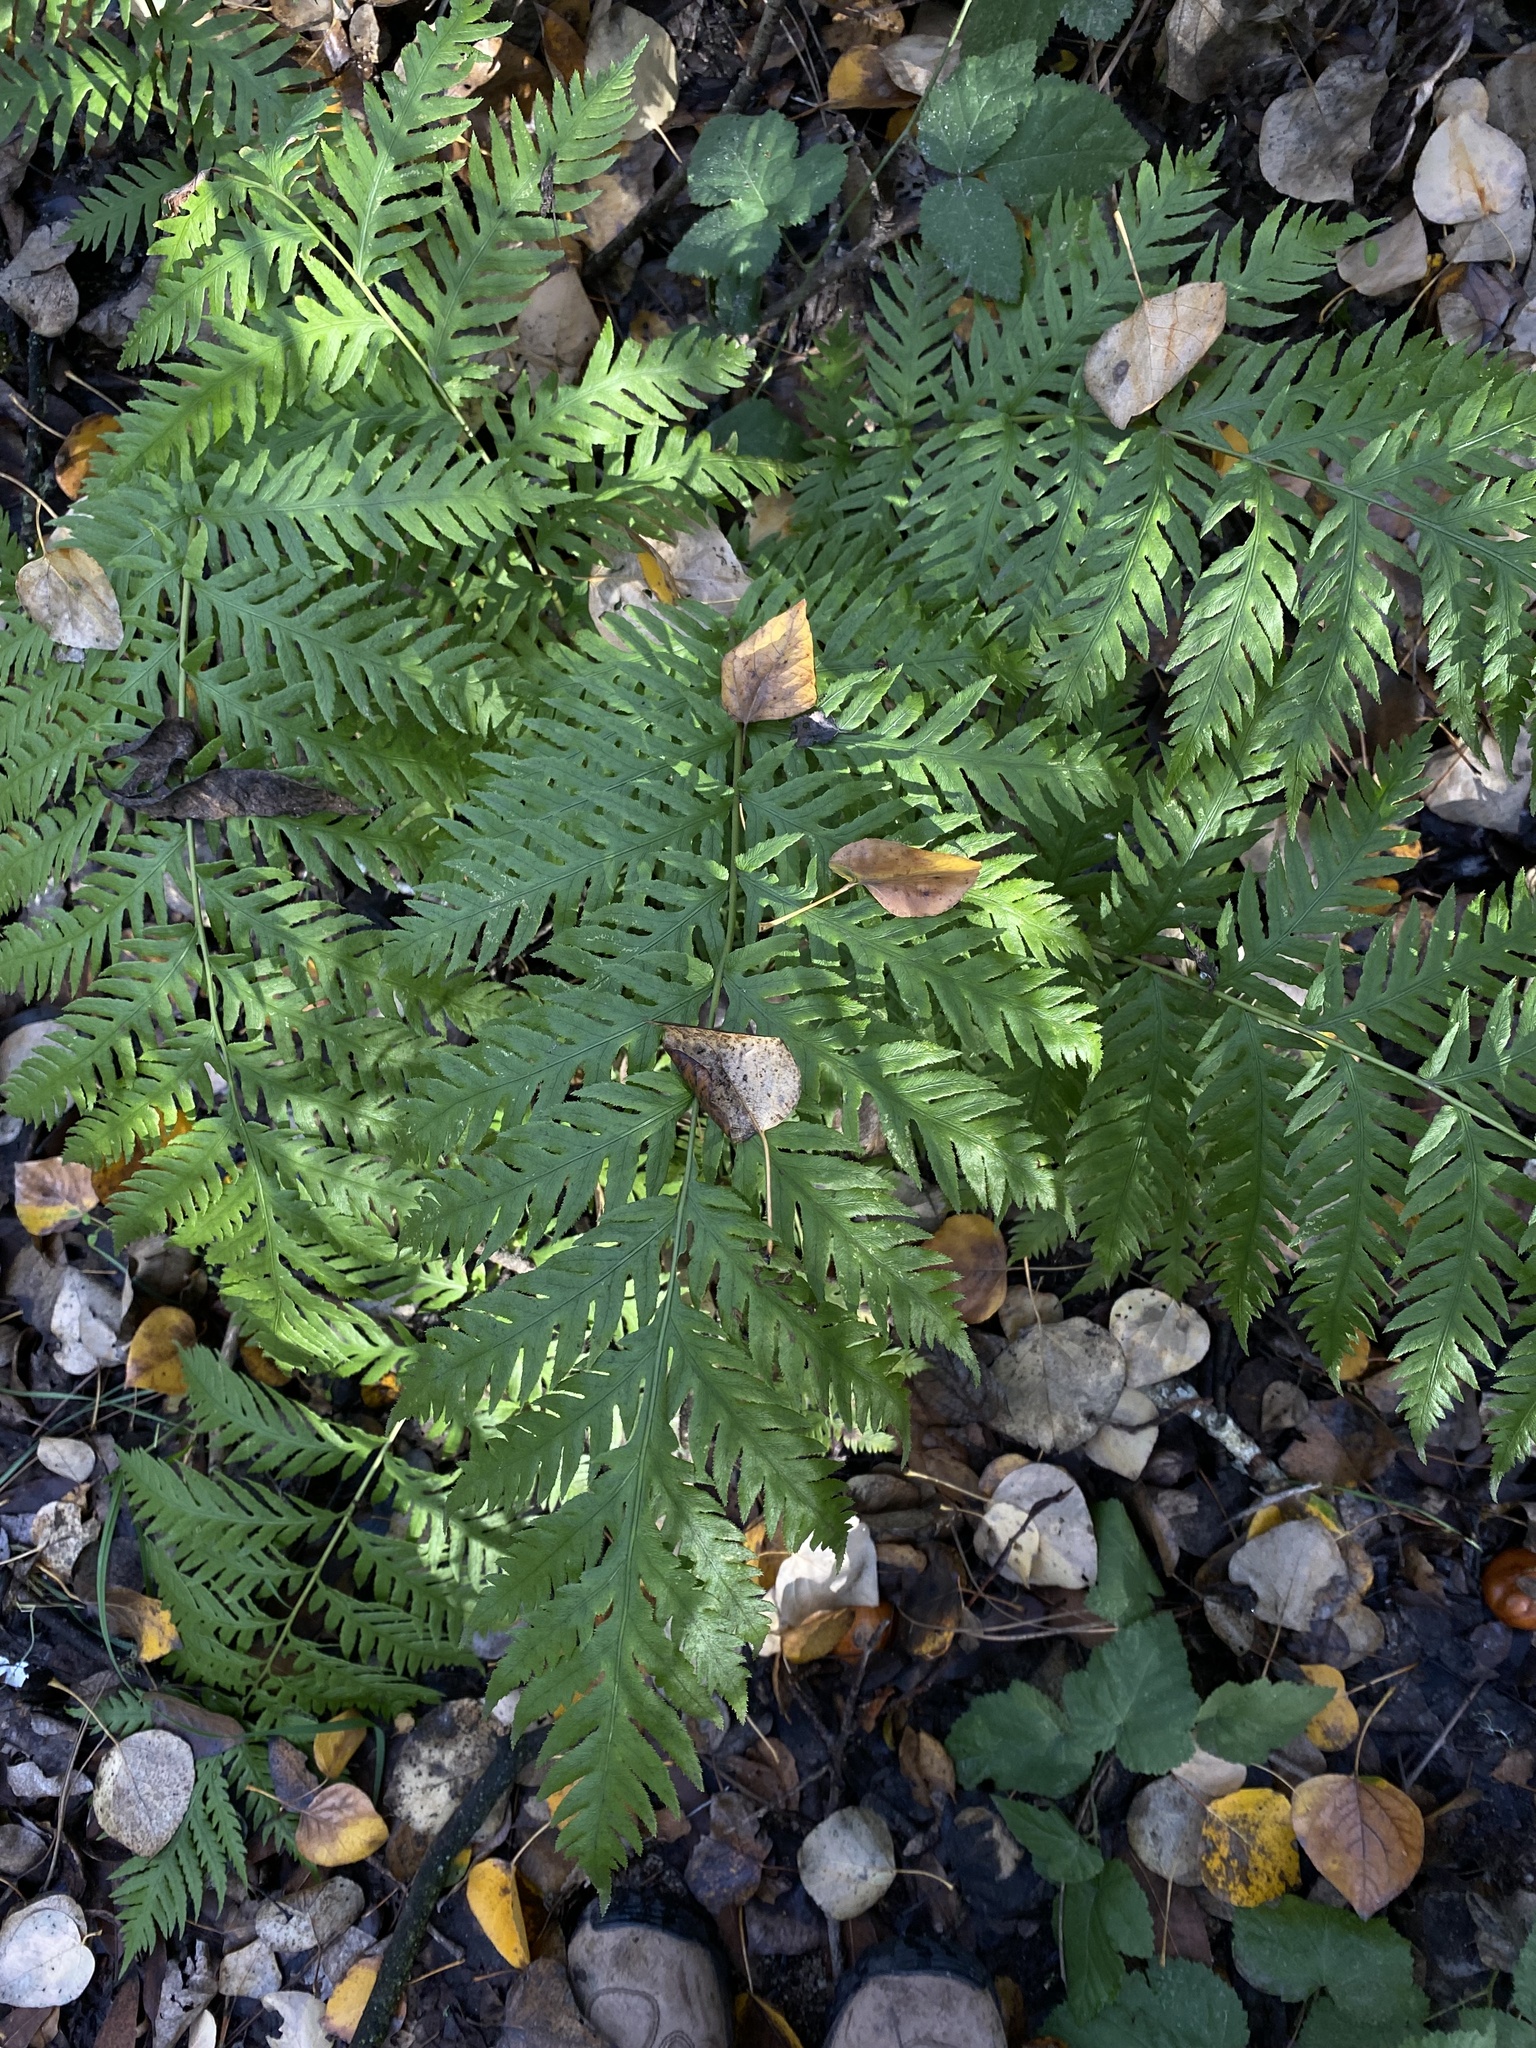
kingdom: Plantae
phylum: Tracheophyta
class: Polypodiopsida
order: Polypodiales
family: Blechnaceae
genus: Woodwardia
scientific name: Woodwardia fimbriata
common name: Giant chain fern
